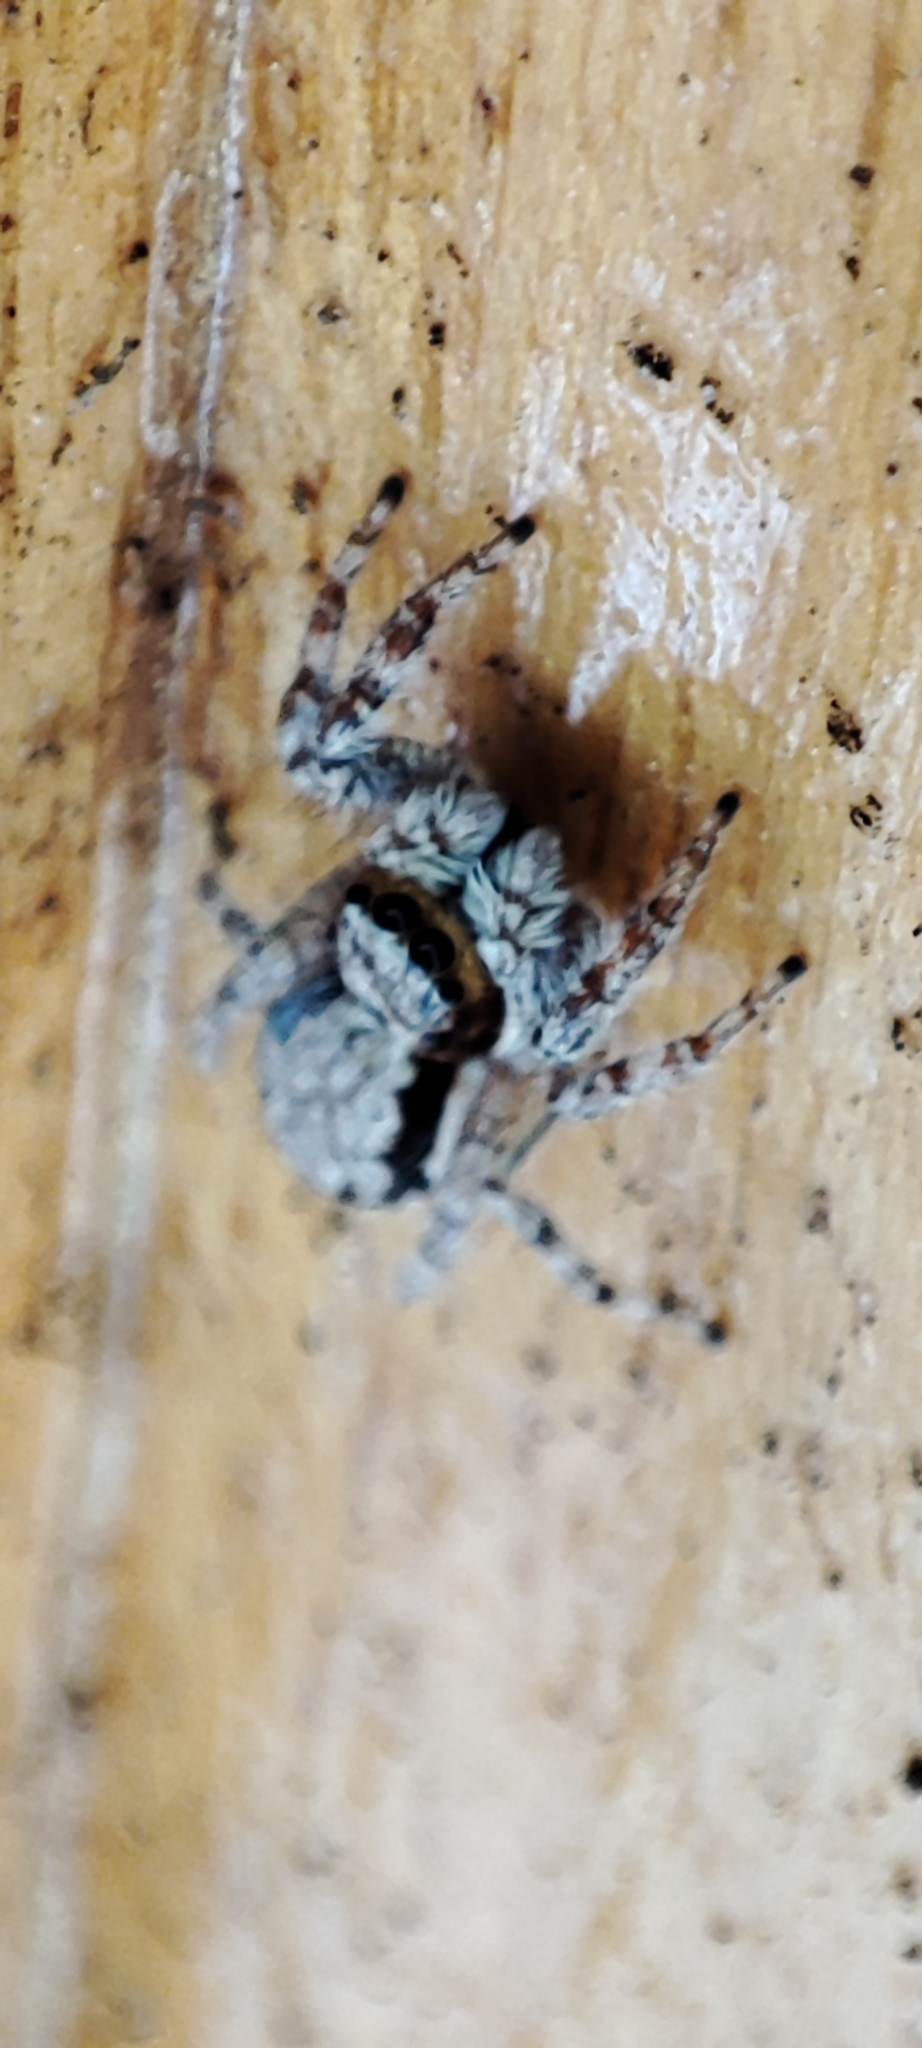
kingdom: Animalia
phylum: Arthropoda
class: Arachnida
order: Araneae
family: Salticidae
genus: Menemerus
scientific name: Menemerus bivittatus
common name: Gray wall jumper
